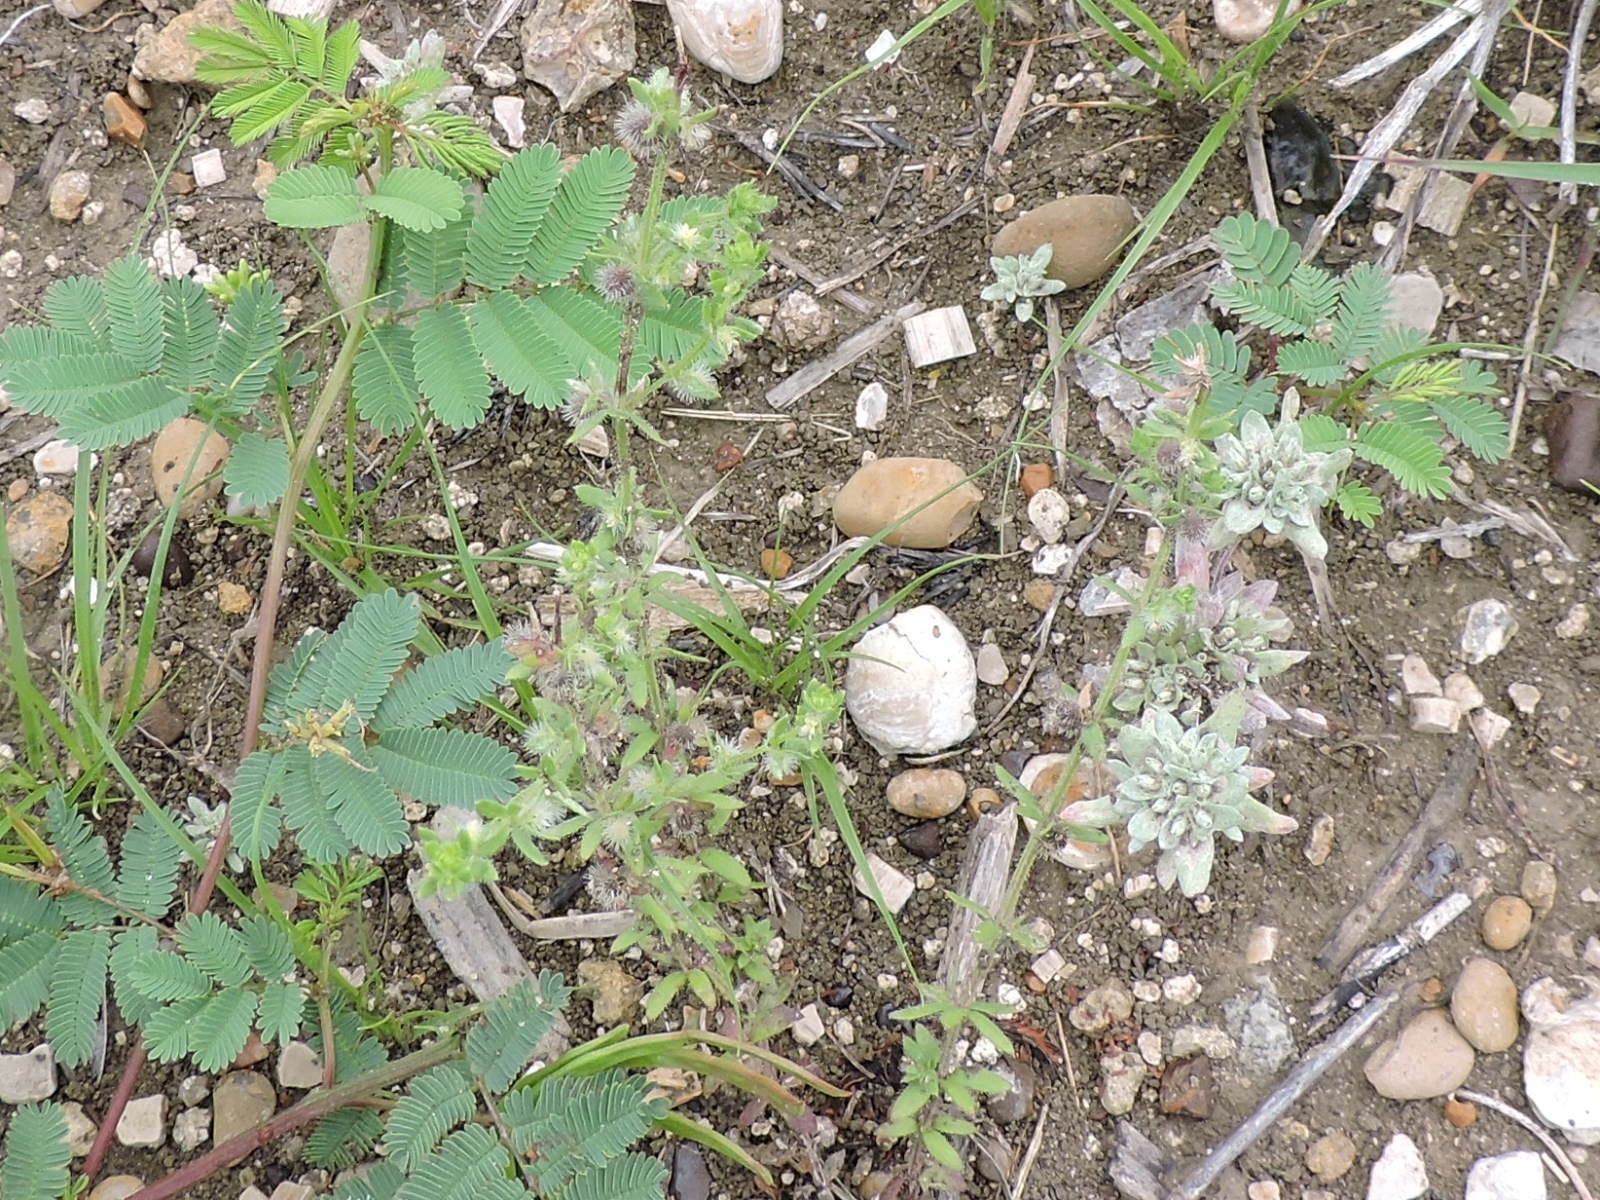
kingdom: Plantae
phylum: Tracheophyta
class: Magnoliopsida
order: Gentianales
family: Rubiaceae
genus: Galium
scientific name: Galium virgatum
